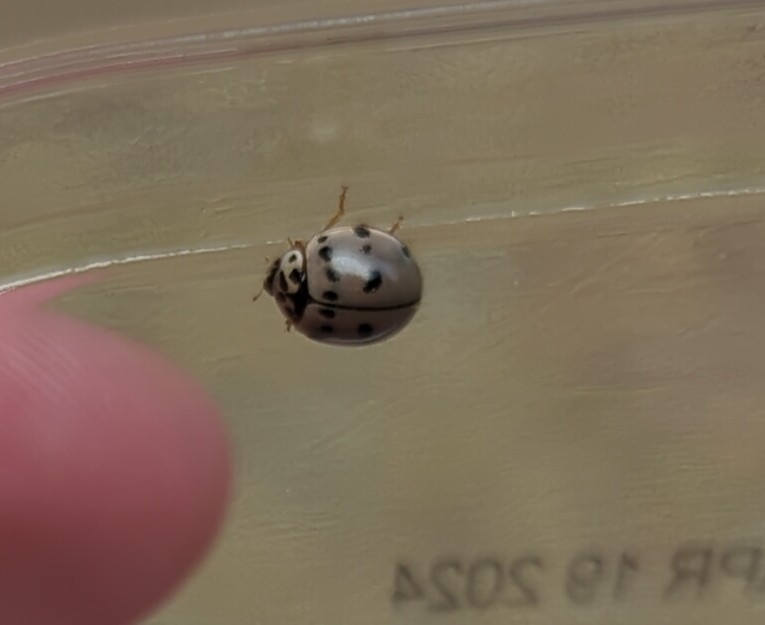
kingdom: Animalia
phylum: Arthropoda
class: Insecta
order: Coleoptera
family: Coccinellidae
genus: Olla
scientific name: Olla v-nigrum
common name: Ashy gray lady beetle
